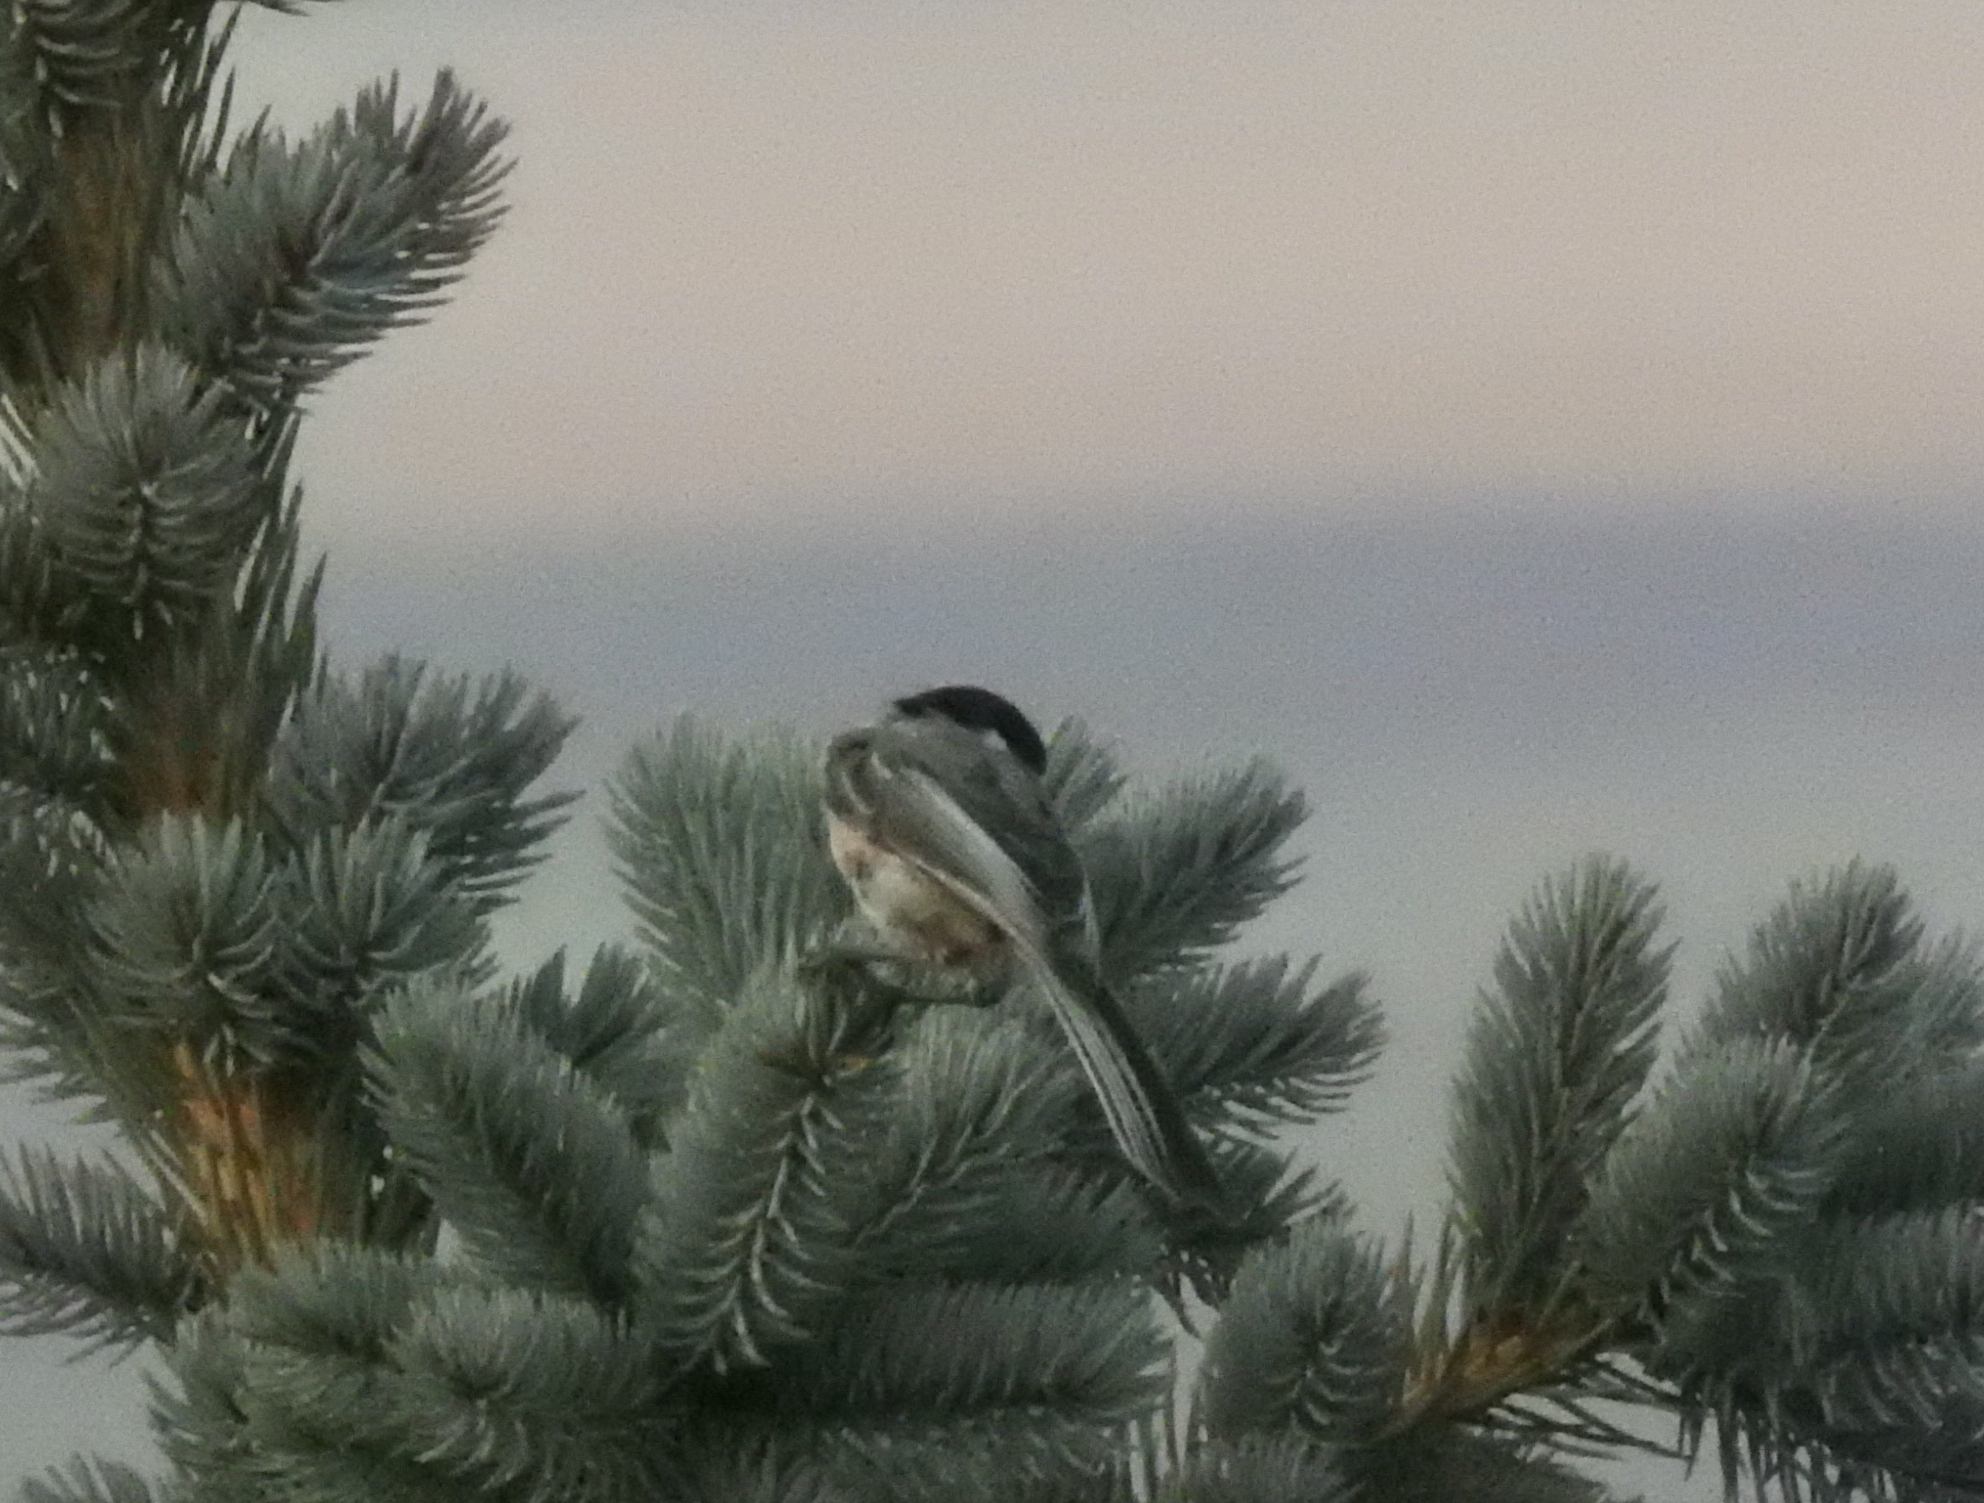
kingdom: Animalia
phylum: Chordata
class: Aves
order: Passeriformes
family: Paridae
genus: Poecile
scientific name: Poecile atricapillus
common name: Black-capped chickadee
